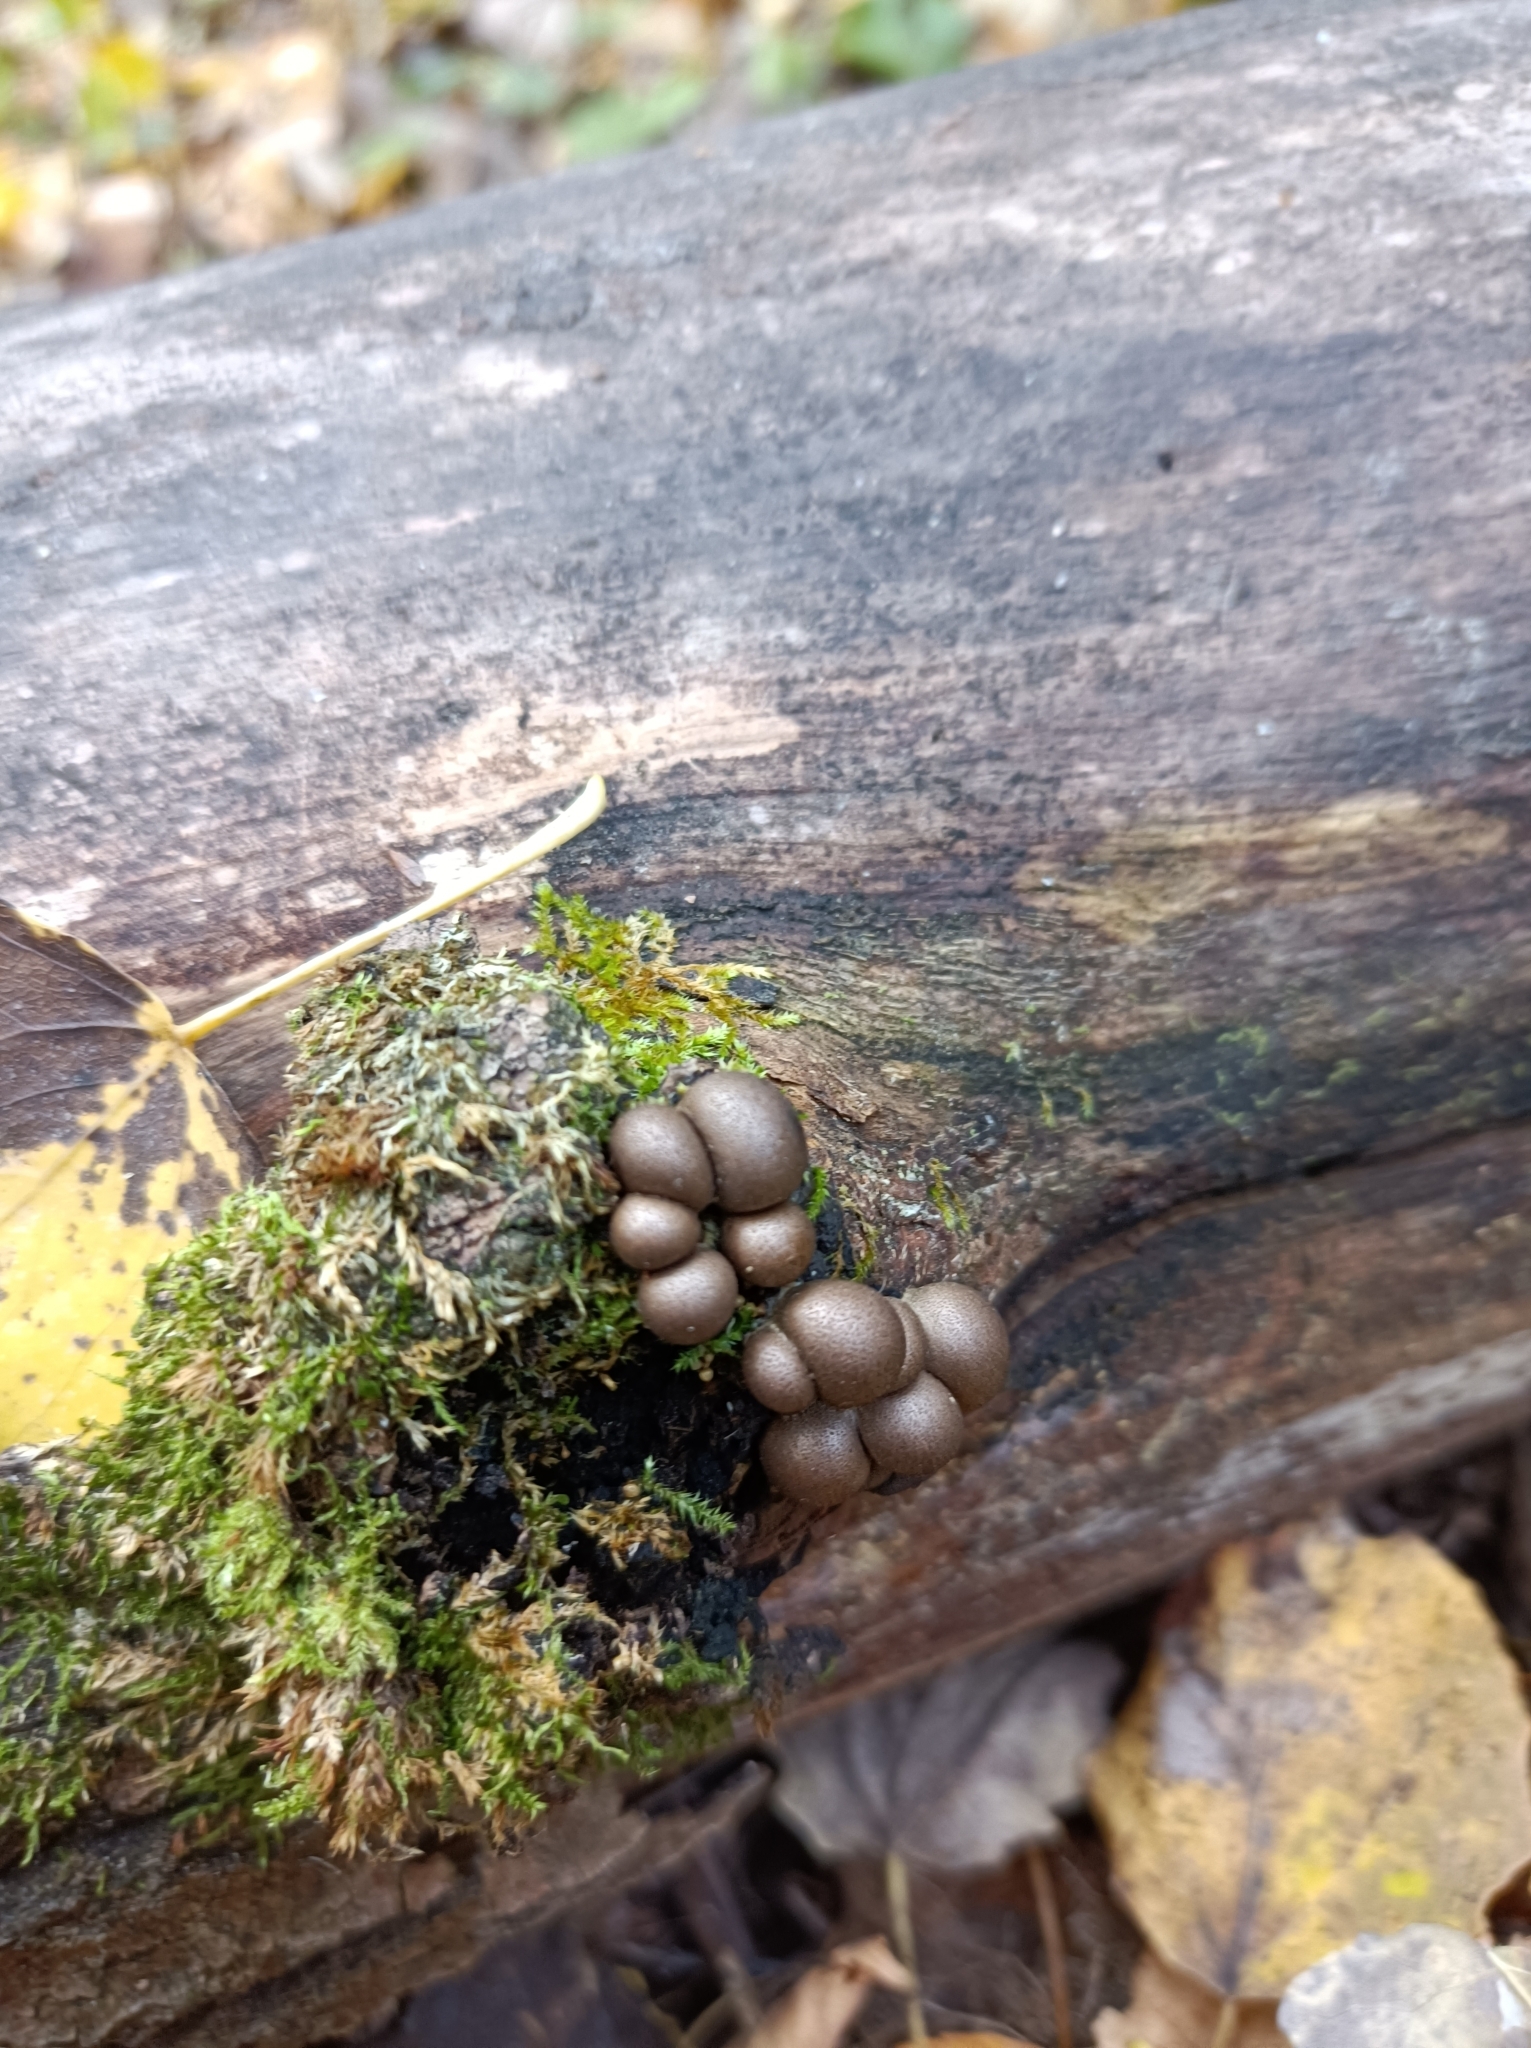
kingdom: Protozoa
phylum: Mycetozoa
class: Myxomycetes
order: Cribrariales
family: Tubiferaceae
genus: Lycogala
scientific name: Lycogala epidendrum
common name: Wolf's milk
